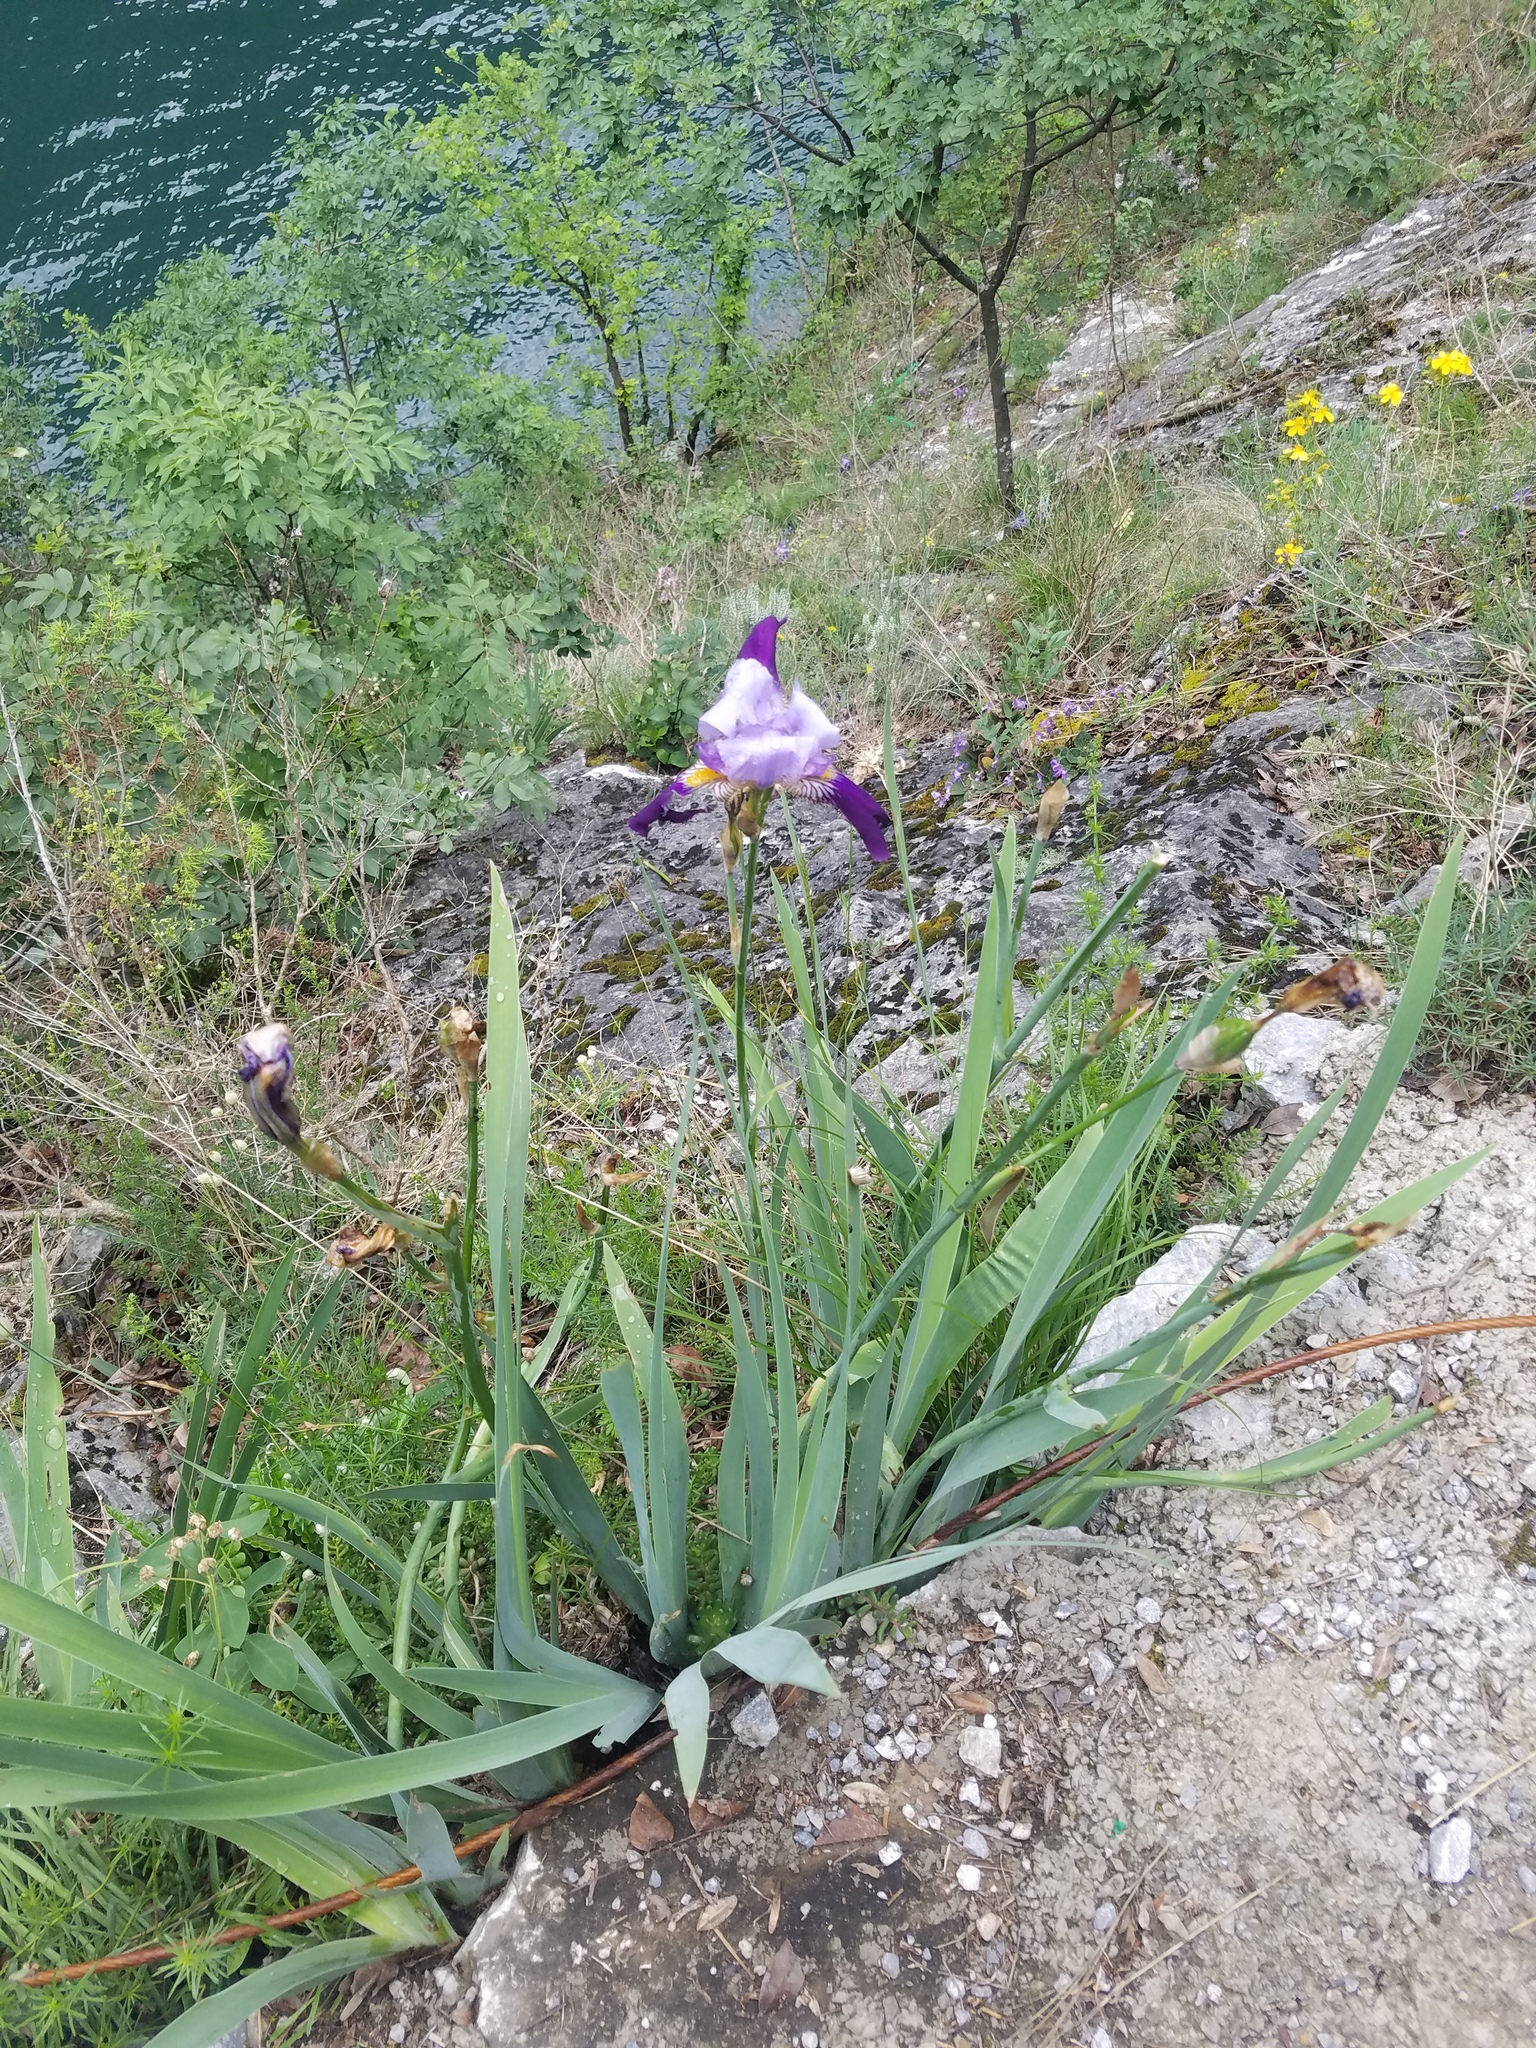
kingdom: Plantae
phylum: Tracheophyta
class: Liliopsida
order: Asparagales
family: Iridaceae
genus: Iris
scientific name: Iris germanica
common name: German iris
